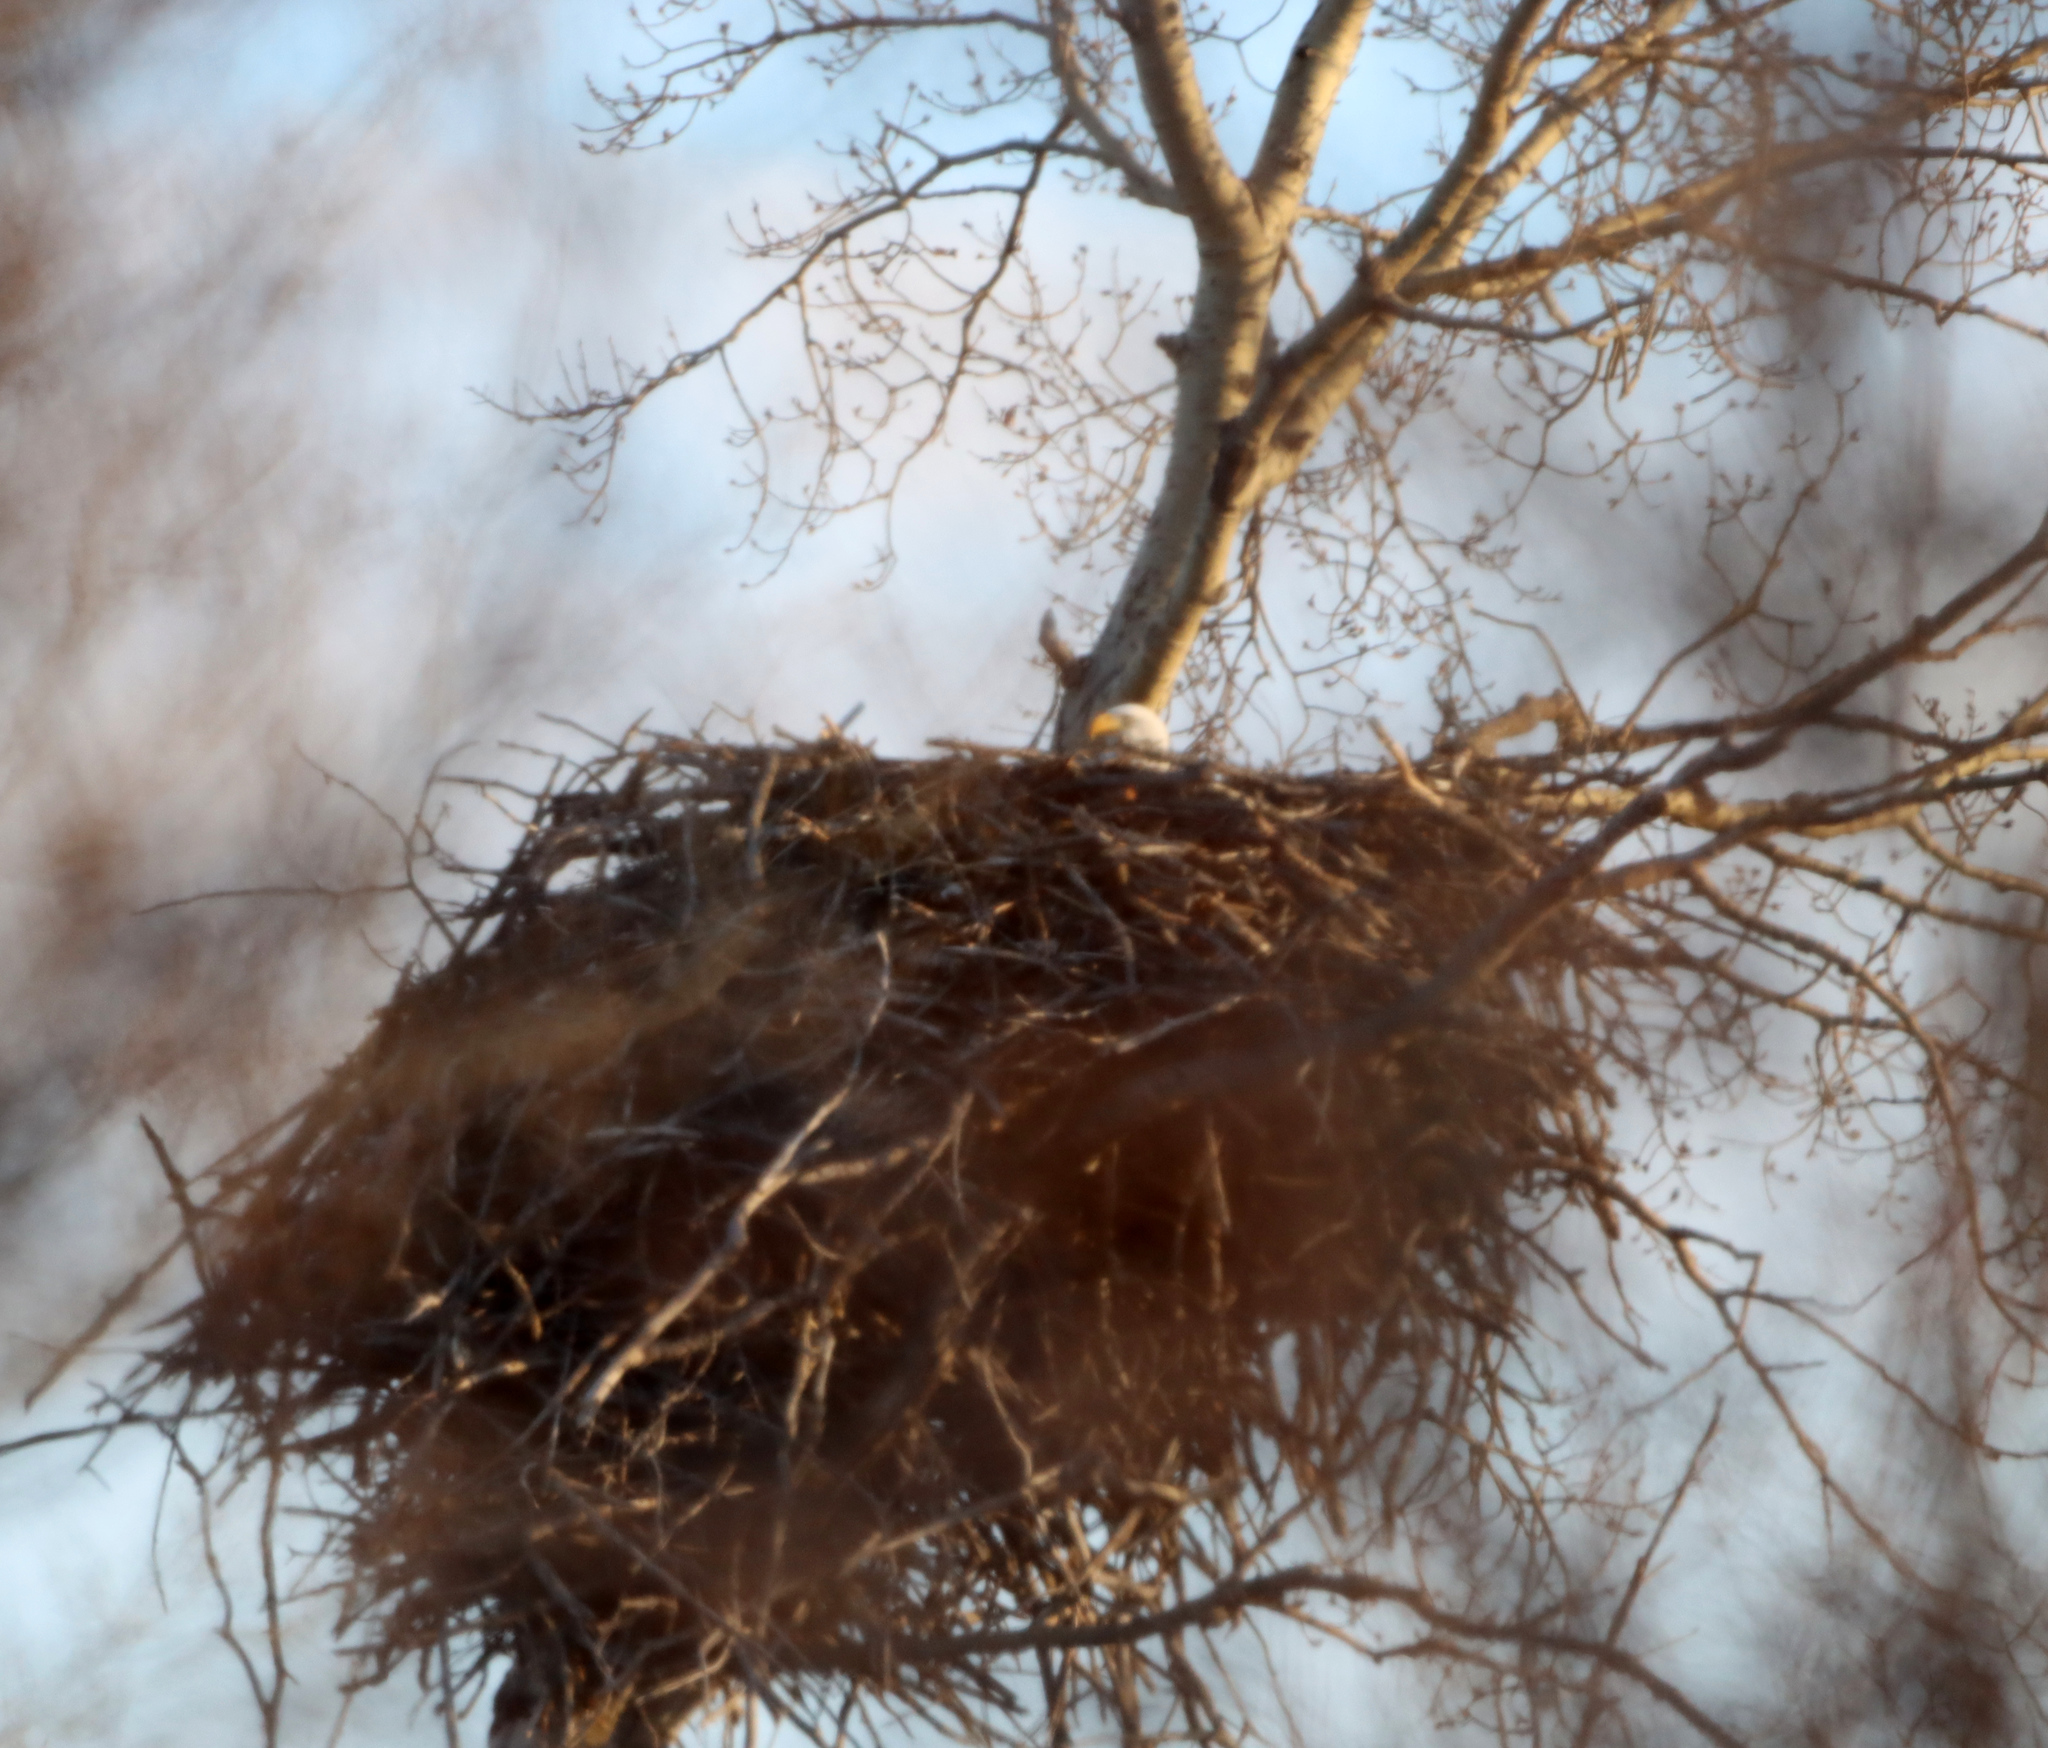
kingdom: Animalia
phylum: Chordata
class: Aves
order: Accipitriformes
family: Accipitridae
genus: Haliaeetus
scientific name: Haliaeetus leucocephalus
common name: Bald eagle
